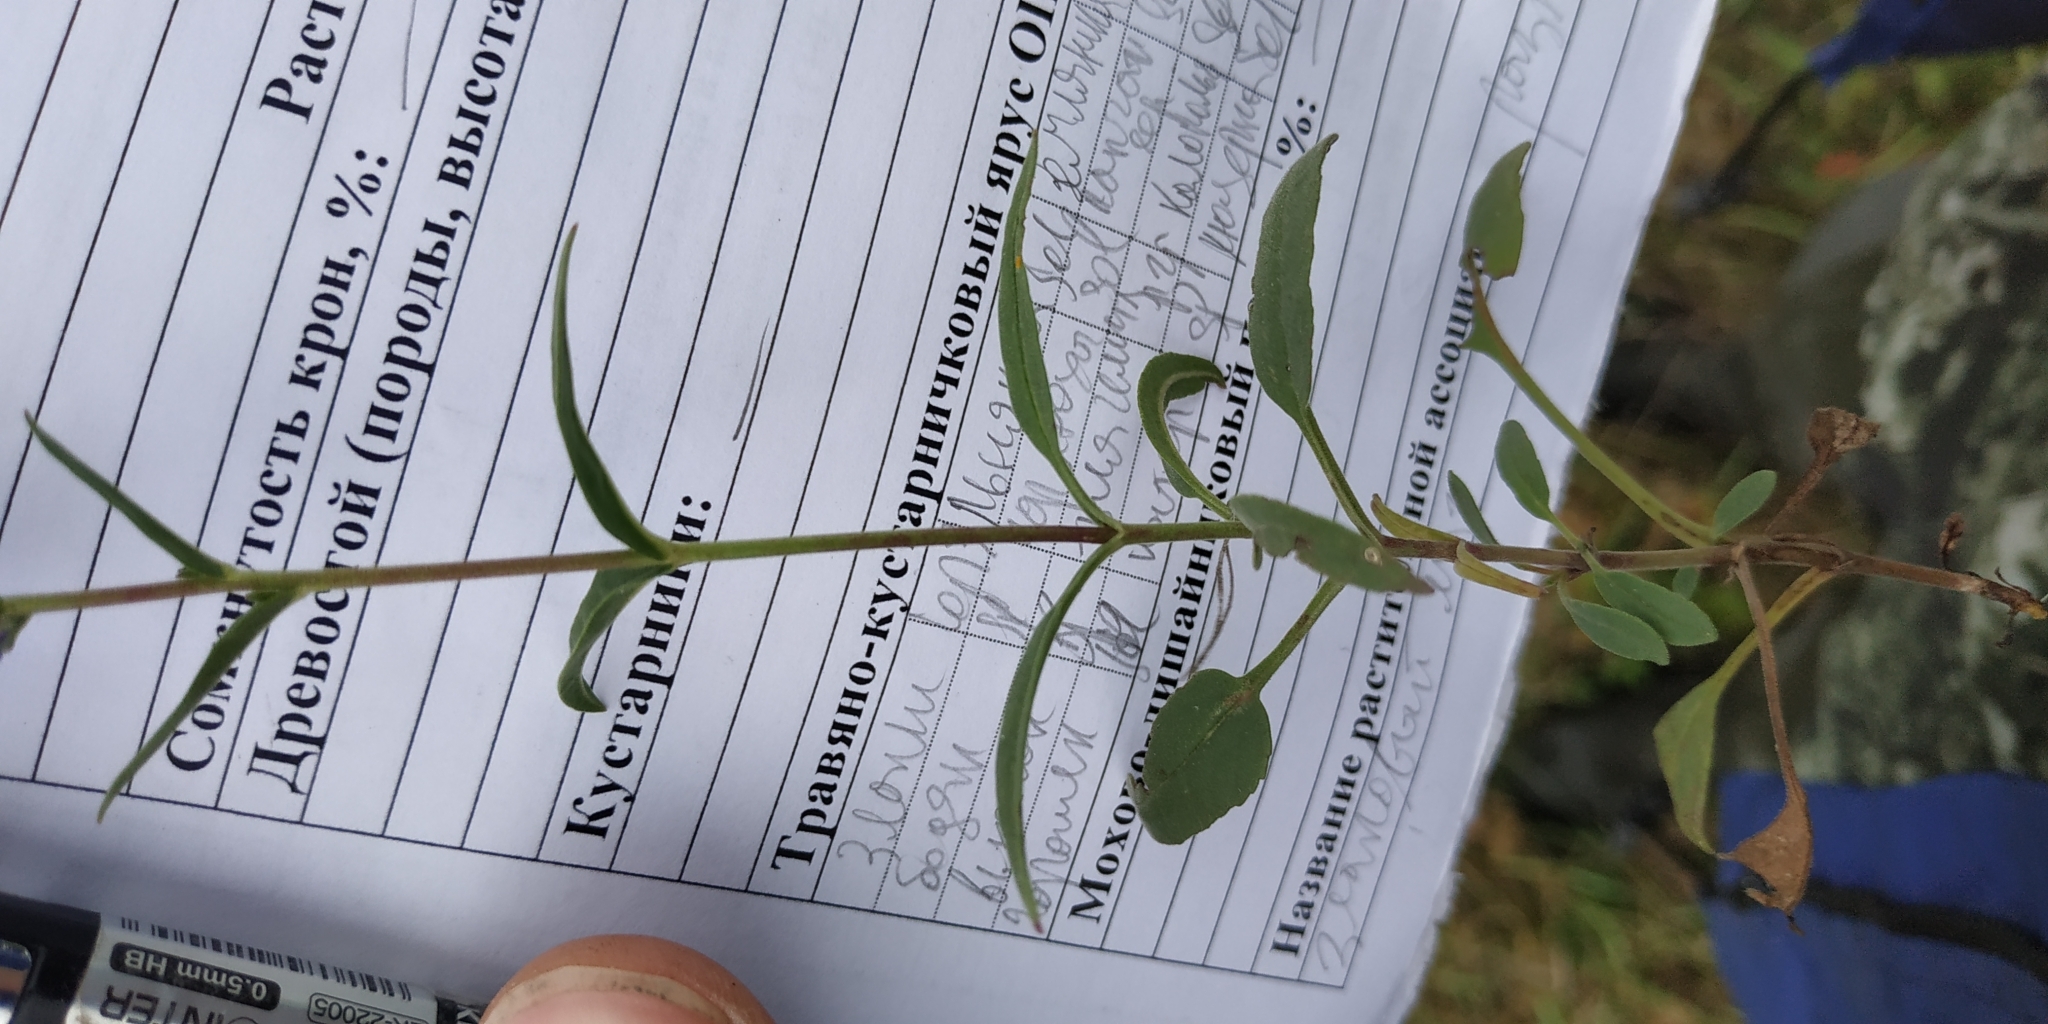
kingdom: Plantae
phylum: Tracheophyta
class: Magnoliopsida
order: Lamiales
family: Plantaginaceae
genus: Veronica
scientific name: Veronica spicata
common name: Spiked speedwell
